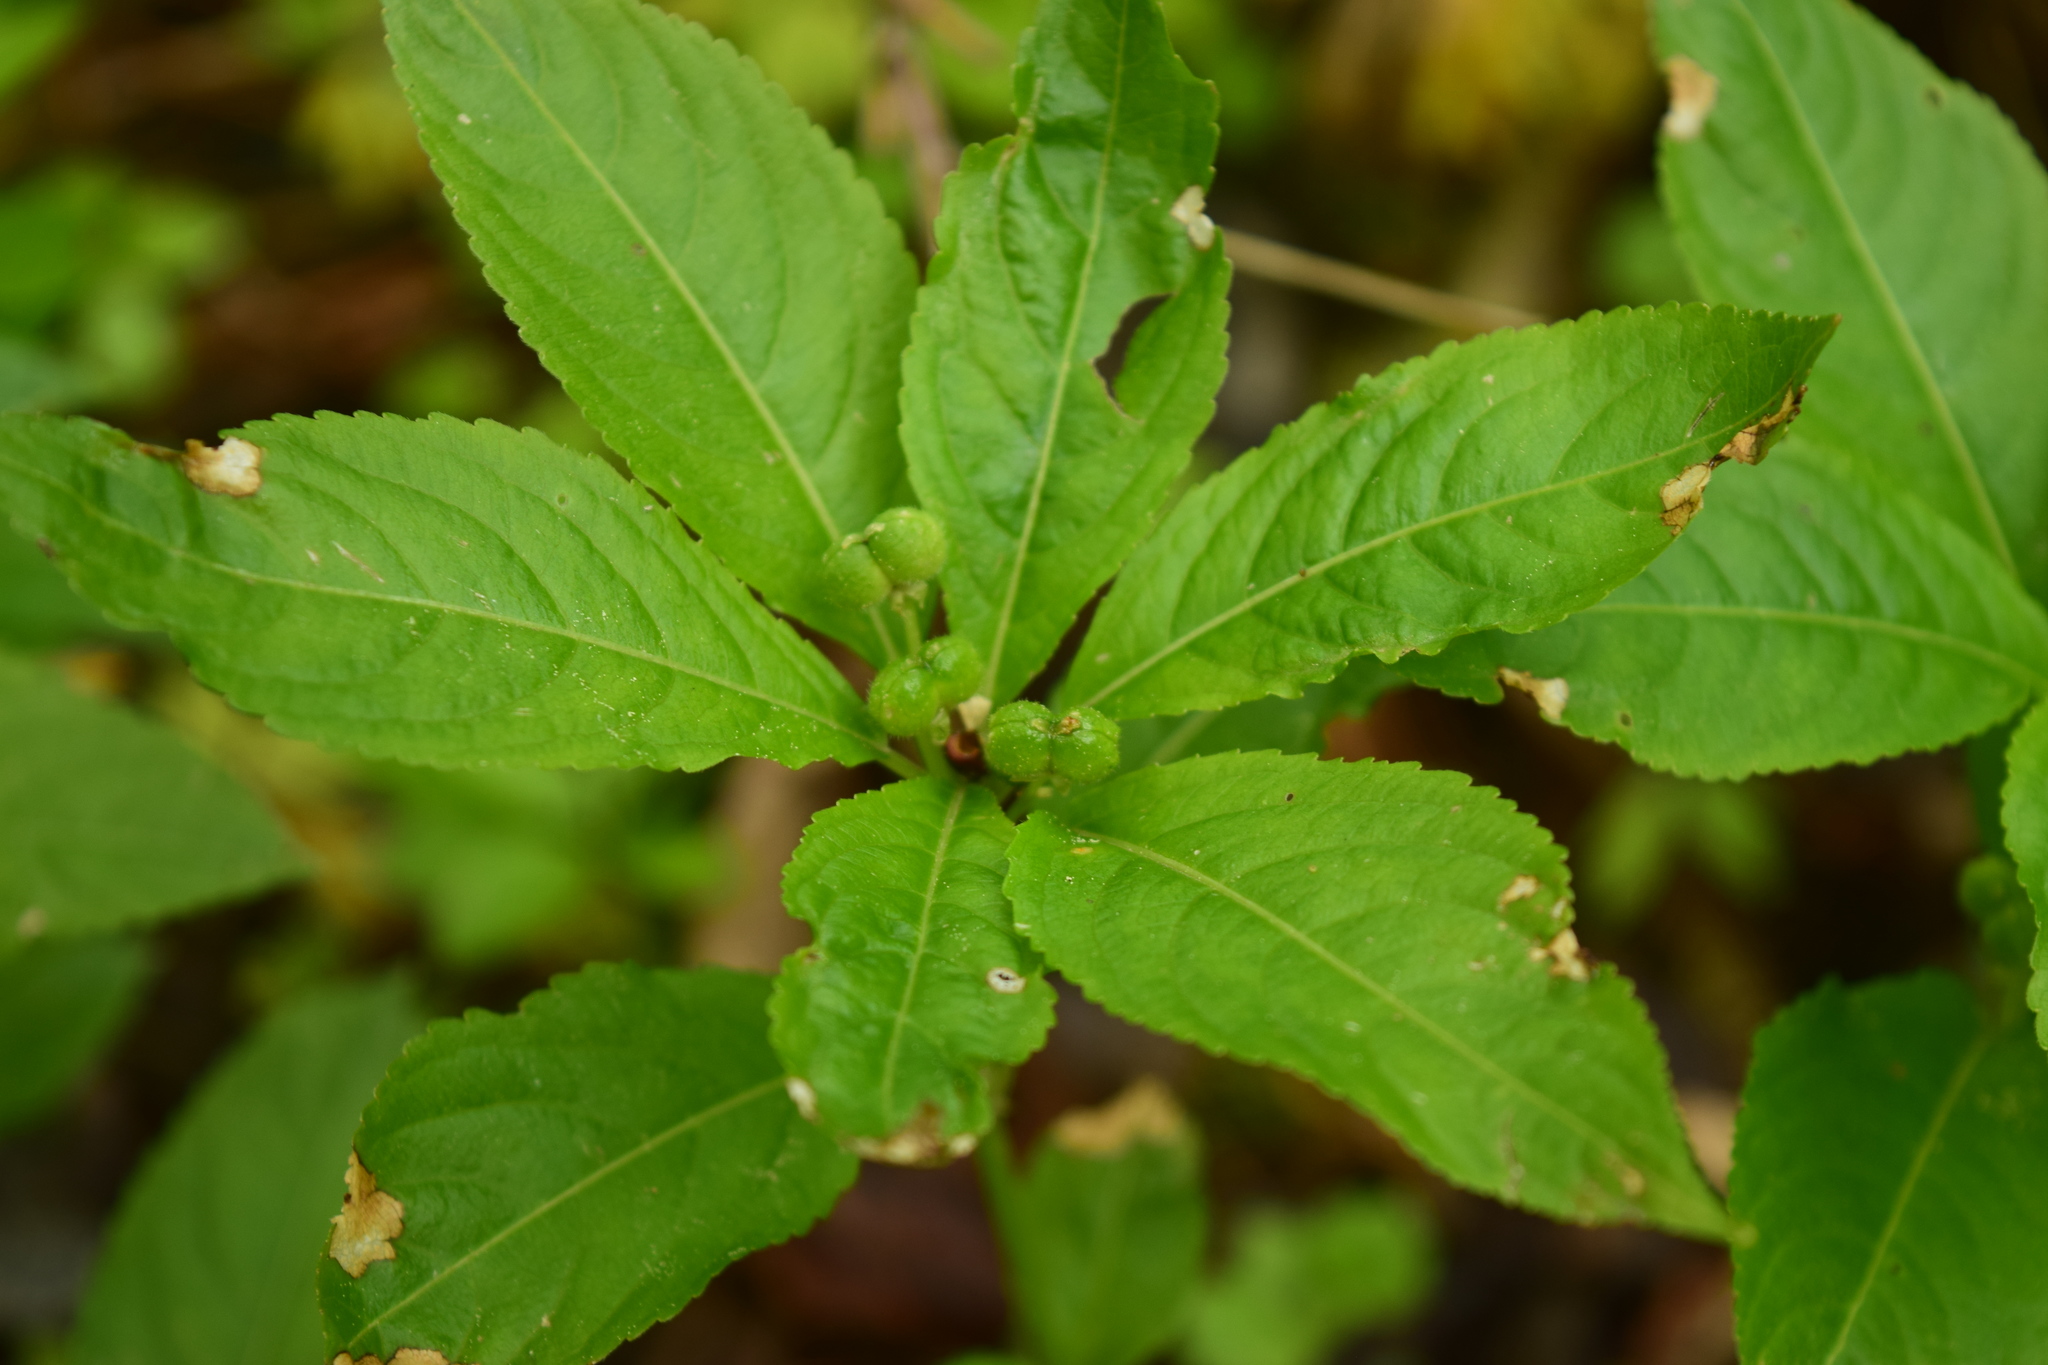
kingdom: Plantae
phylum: Tracheophyta
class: Magnoliopsida
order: Malpighiales
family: Euphorbiaceae
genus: Mercurialis
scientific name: Mercurialis perennis
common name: Dog mercury
